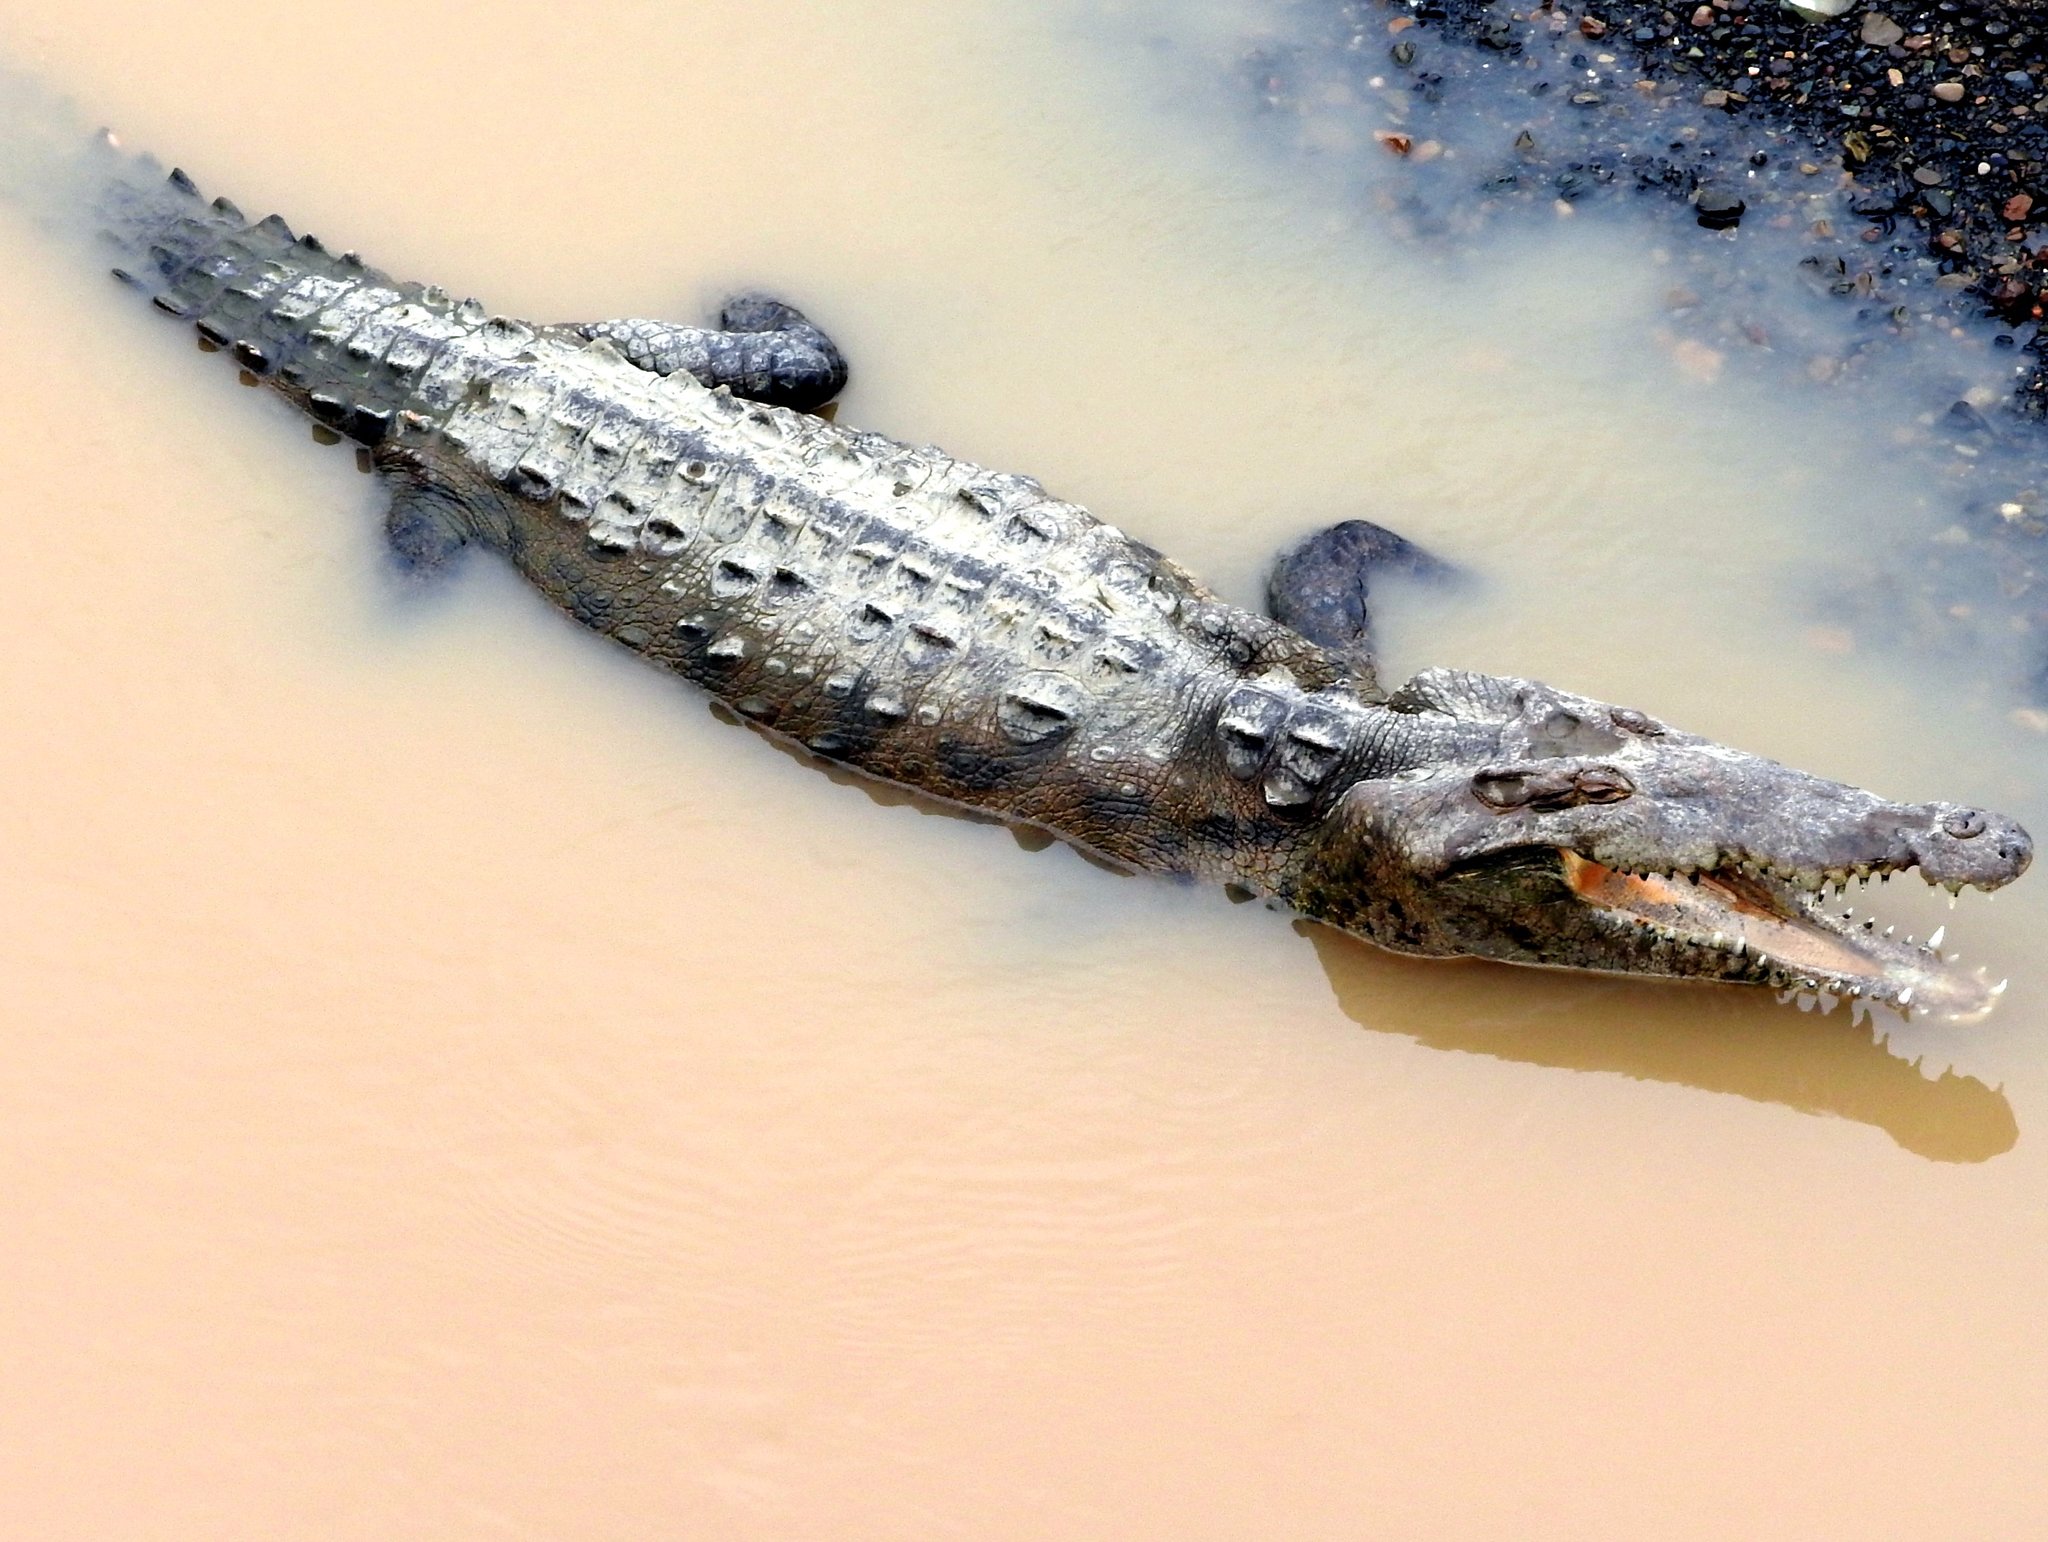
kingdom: Animalia
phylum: Chordata
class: Crocodylia
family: Crocodylidae
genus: Crocodylus
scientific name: Crocodylus acutus
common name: American crocodile
